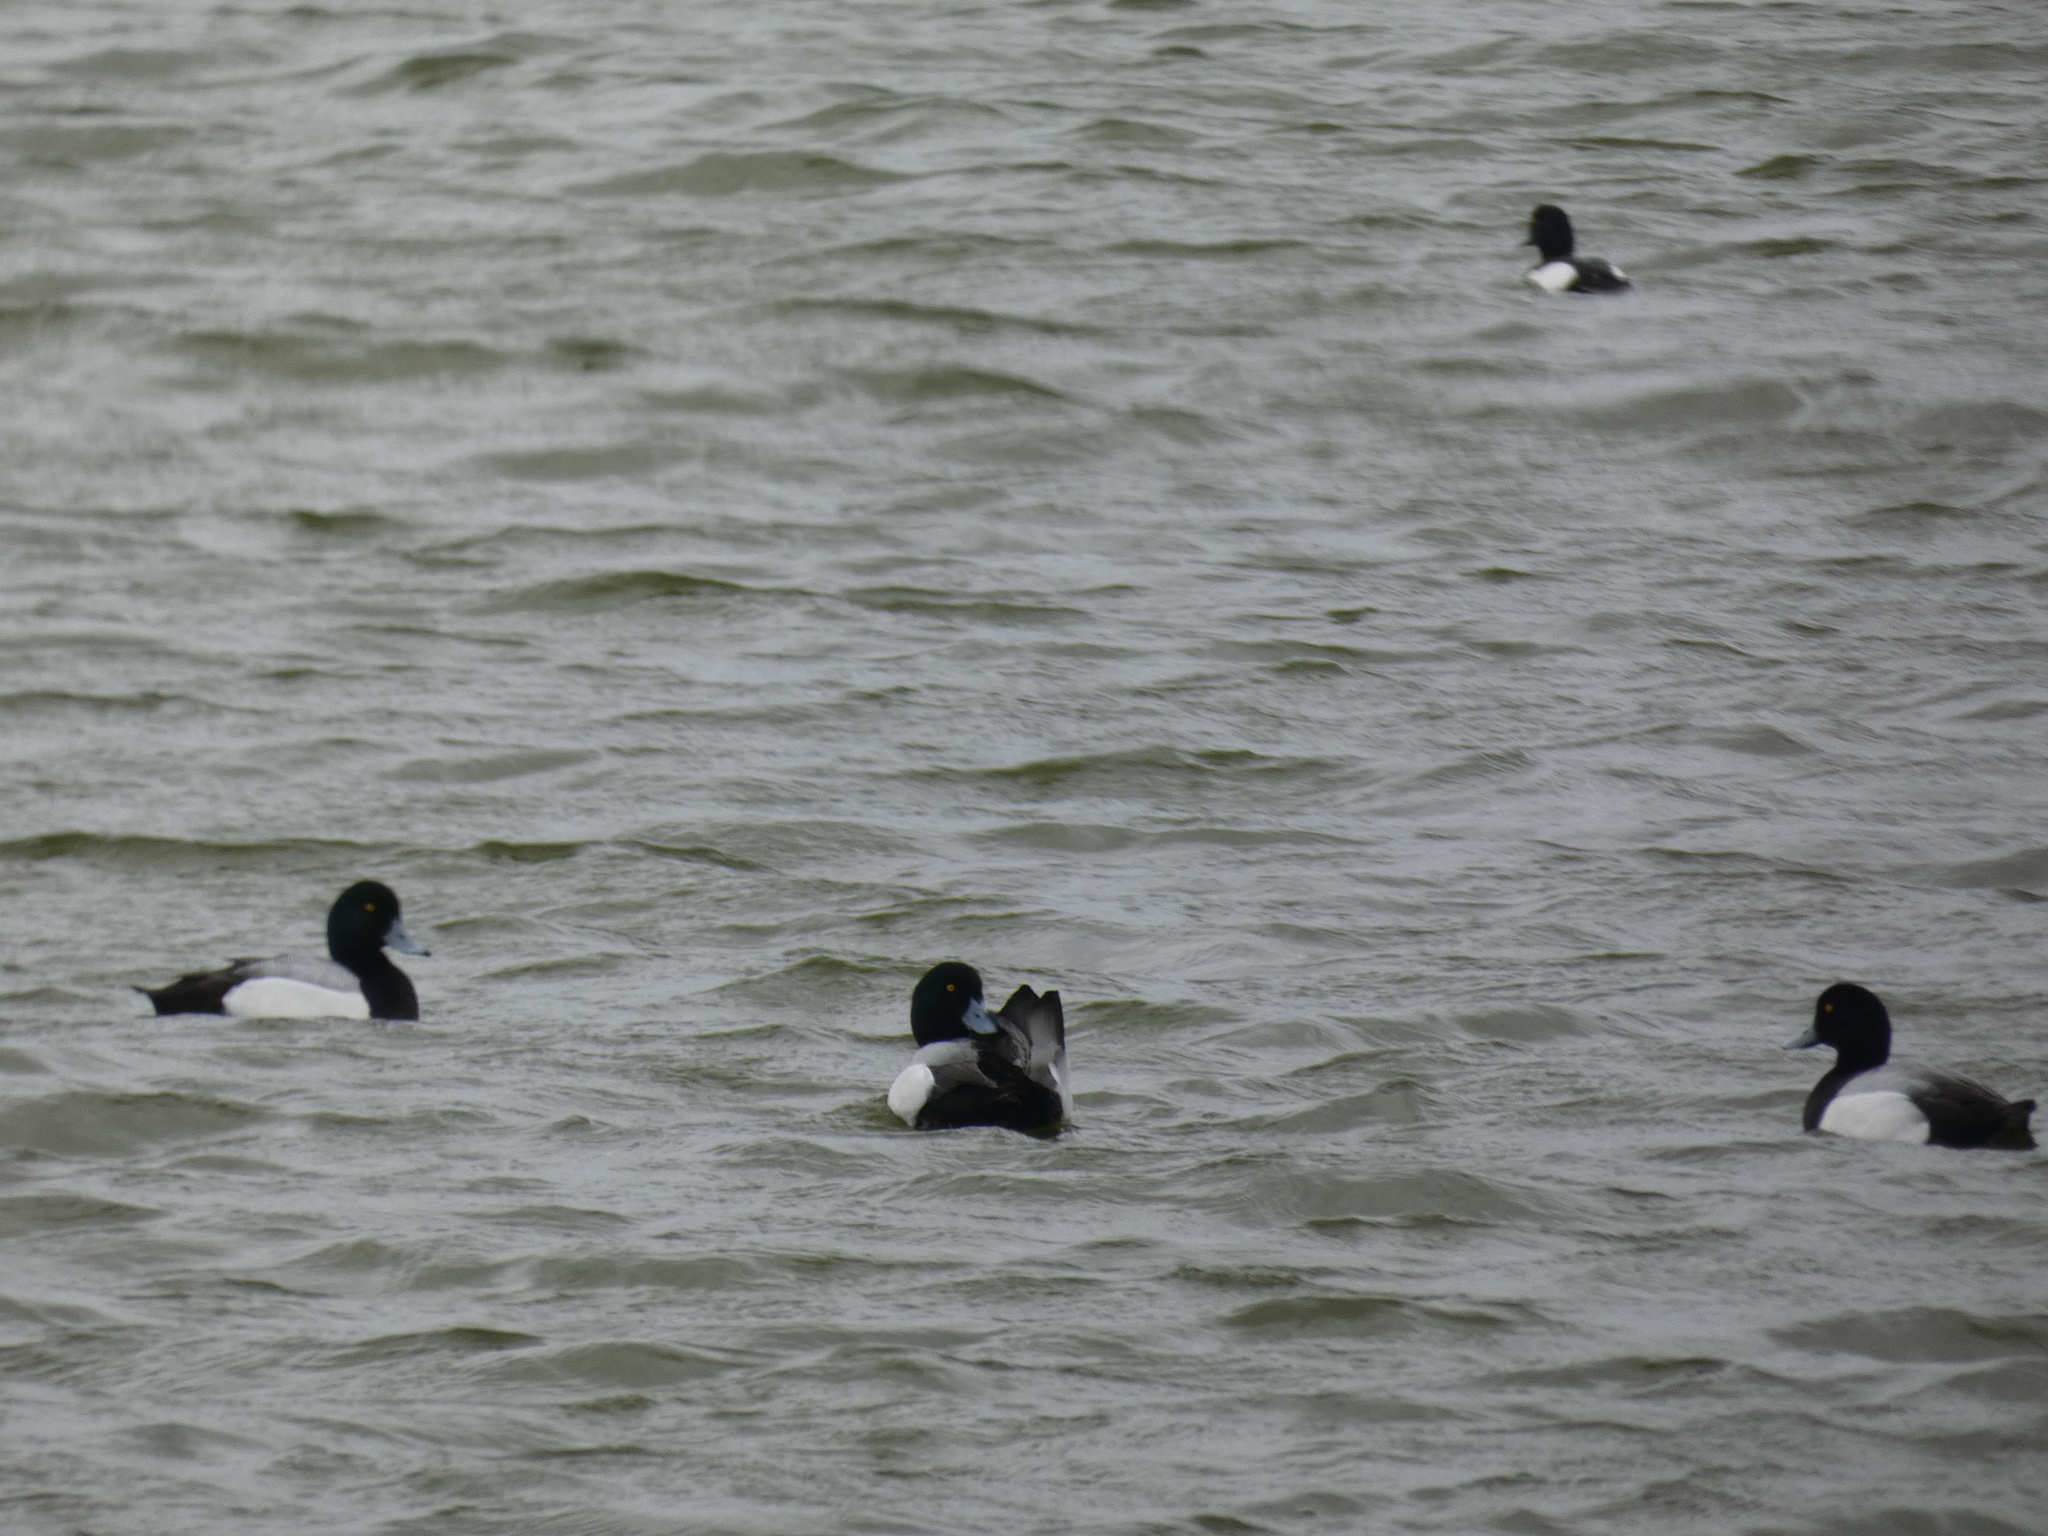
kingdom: Animalia
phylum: Chordata
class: Aves
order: Anseriformes
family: Anatidae
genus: Aythya
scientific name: Aythya marila
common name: Greater scaup
